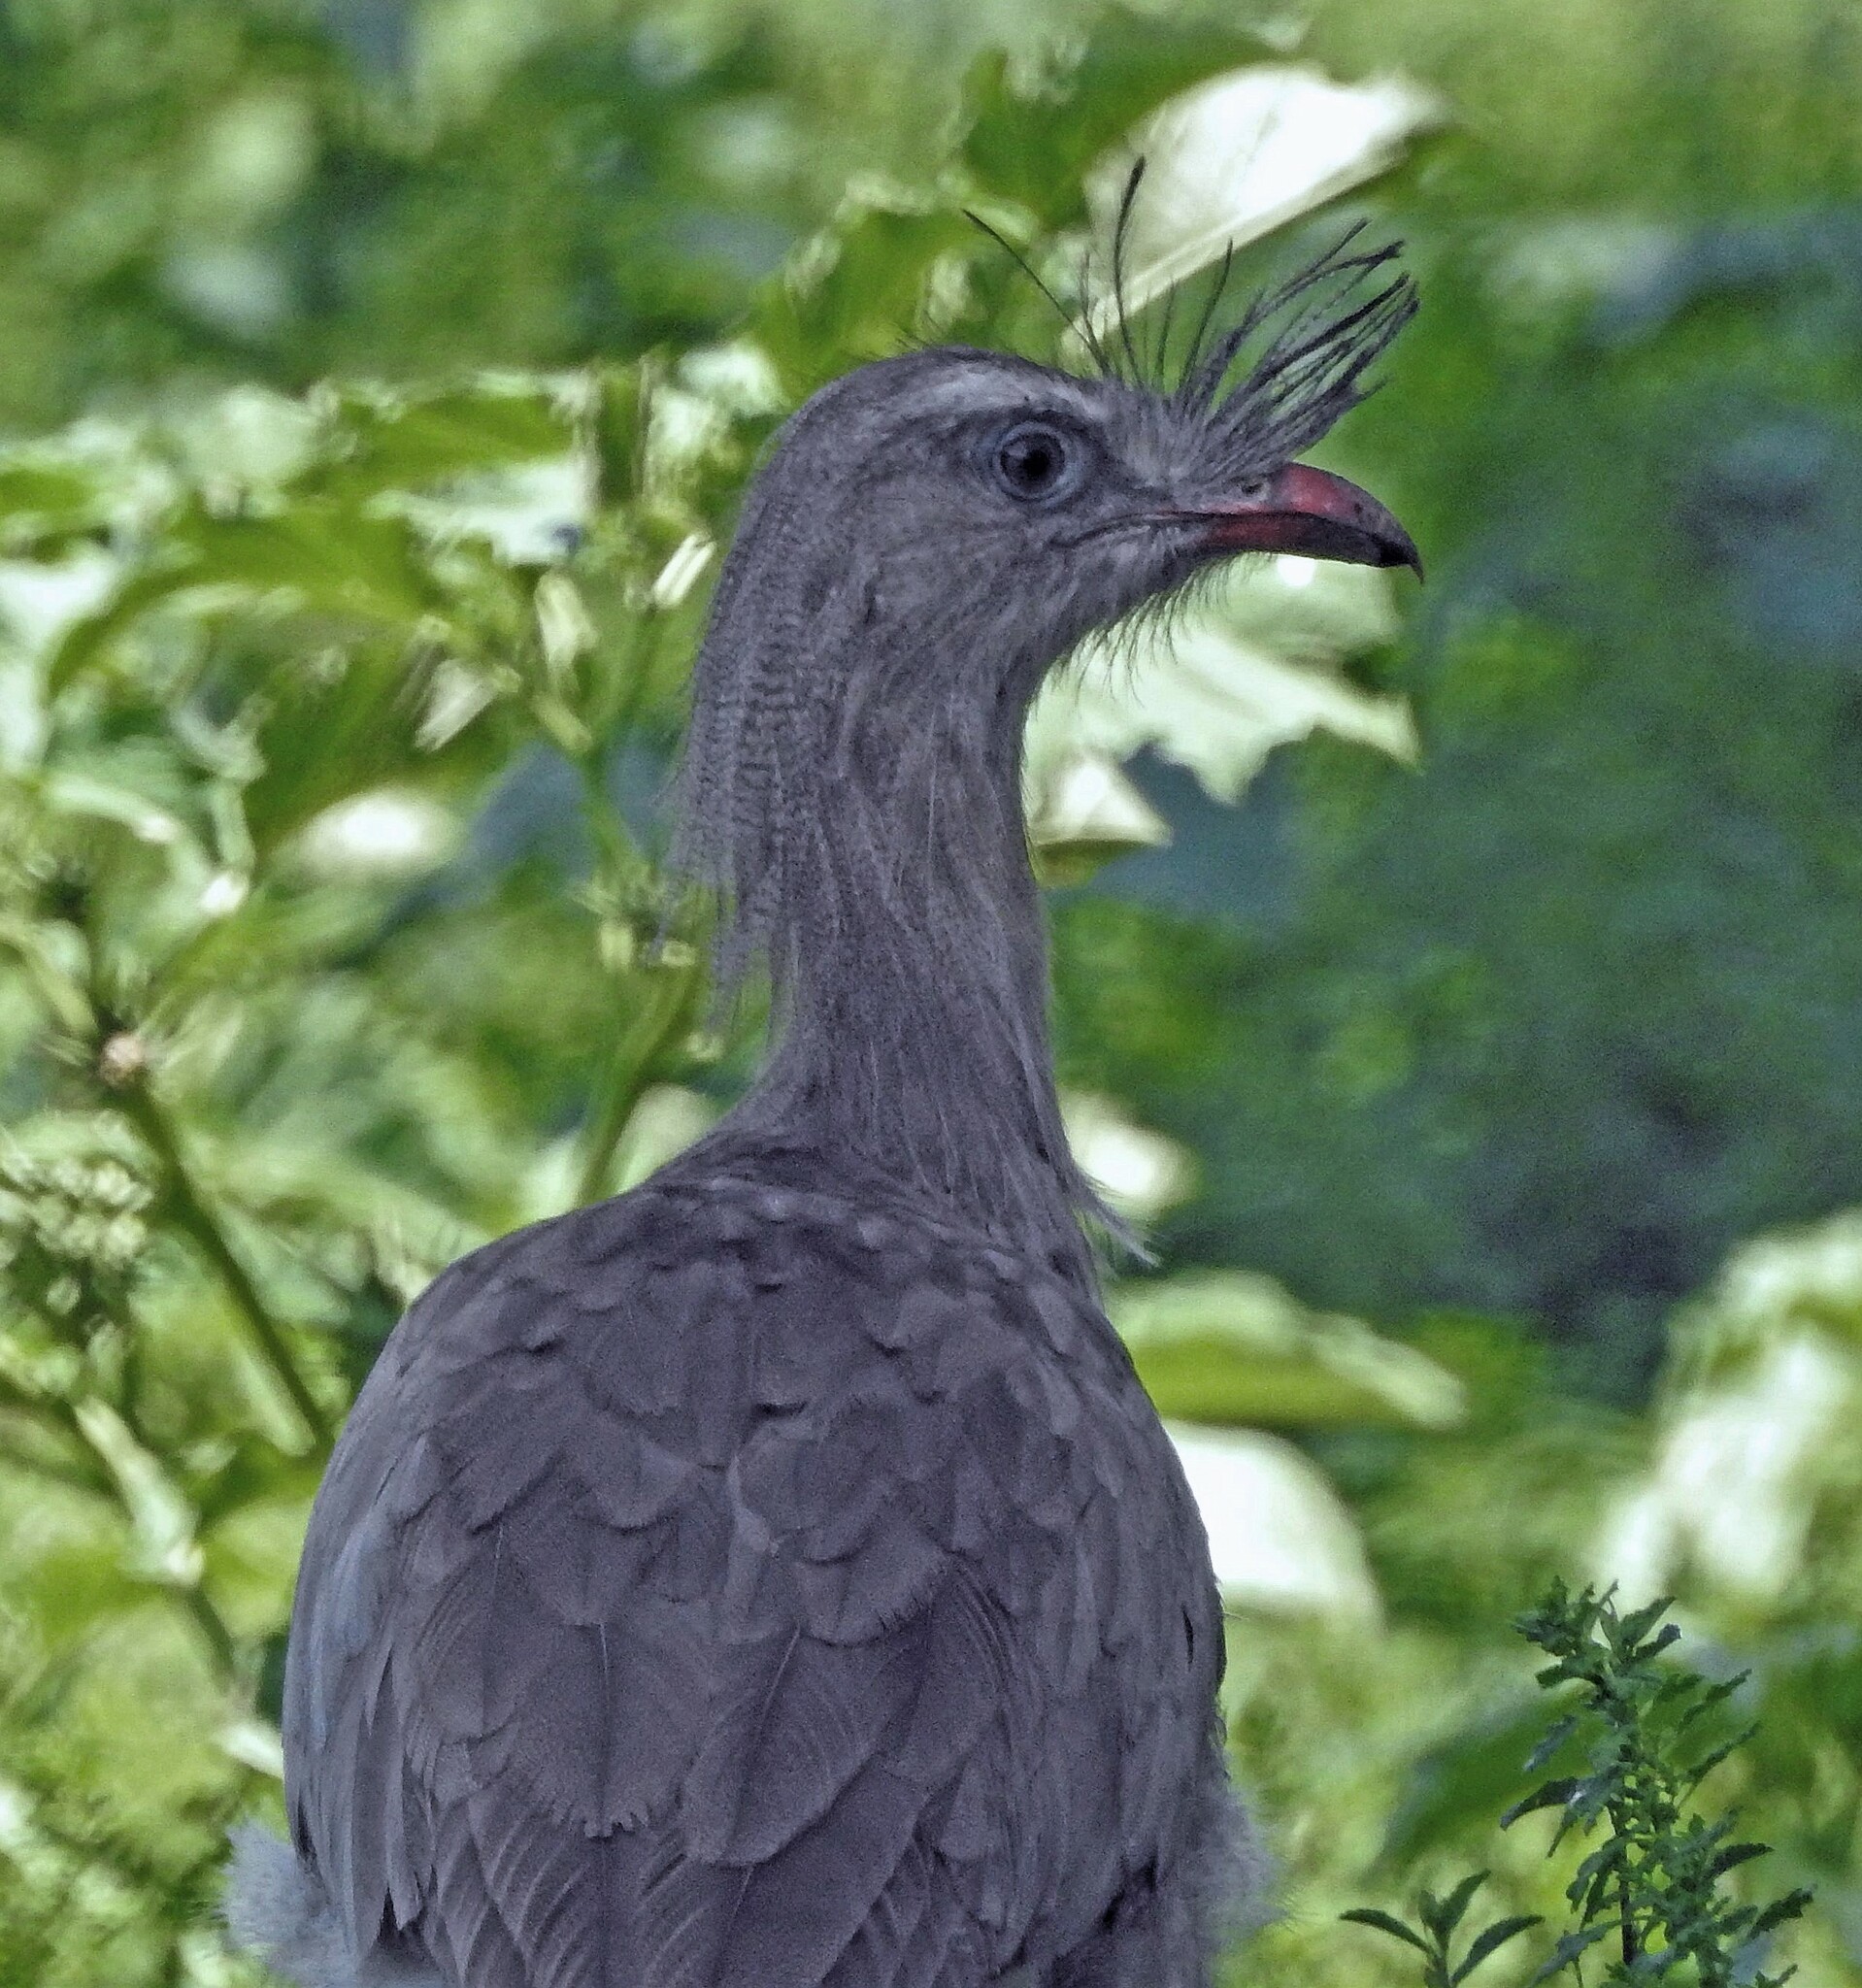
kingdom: Animalia
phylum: Chordata
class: Aves
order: Cariamiformes
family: Cariamidae
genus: Cariama
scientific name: Cariama cristata
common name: Red-legged seriema
